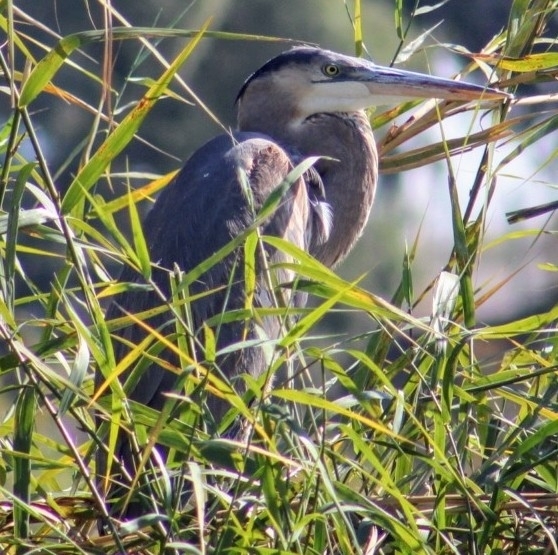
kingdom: Animalia
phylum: Chordata
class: Aves
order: Pelecaniformes
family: Ardeidae
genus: Ardea
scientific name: Ardea herodias
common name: Great blue heron
